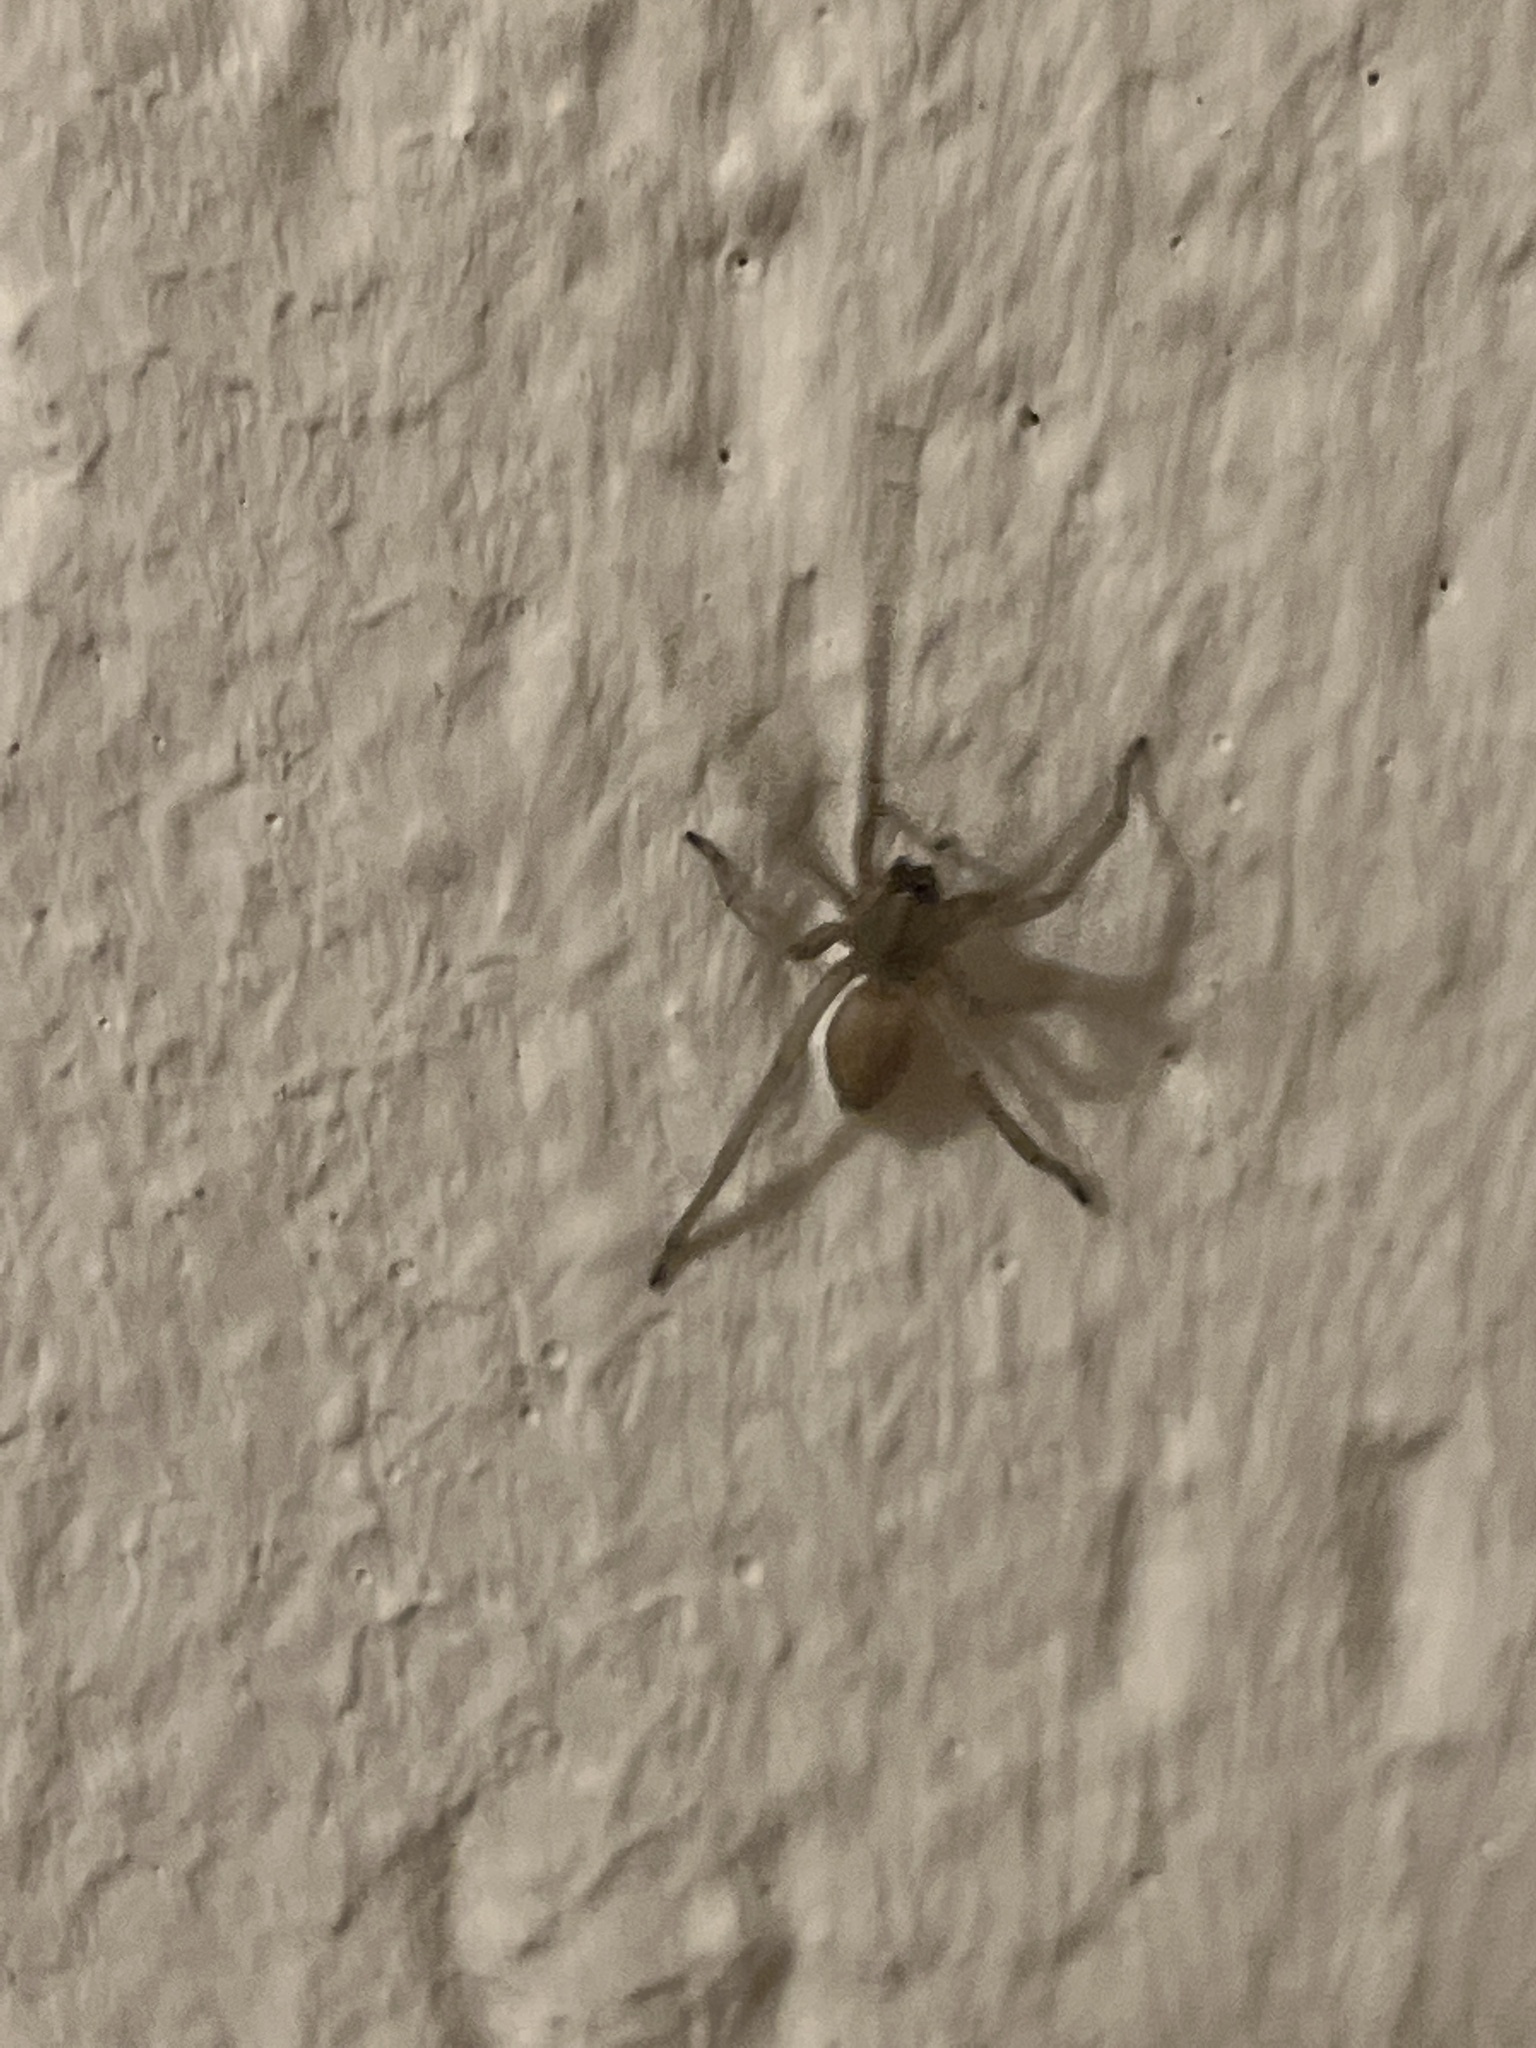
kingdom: Animalia
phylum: Arthropoda
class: Arachnida
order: Araneae
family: Cheiracanthiidae
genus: Cheiracanthium
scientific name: Cheiracanthium mildei
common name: Northern yellow sac spider
